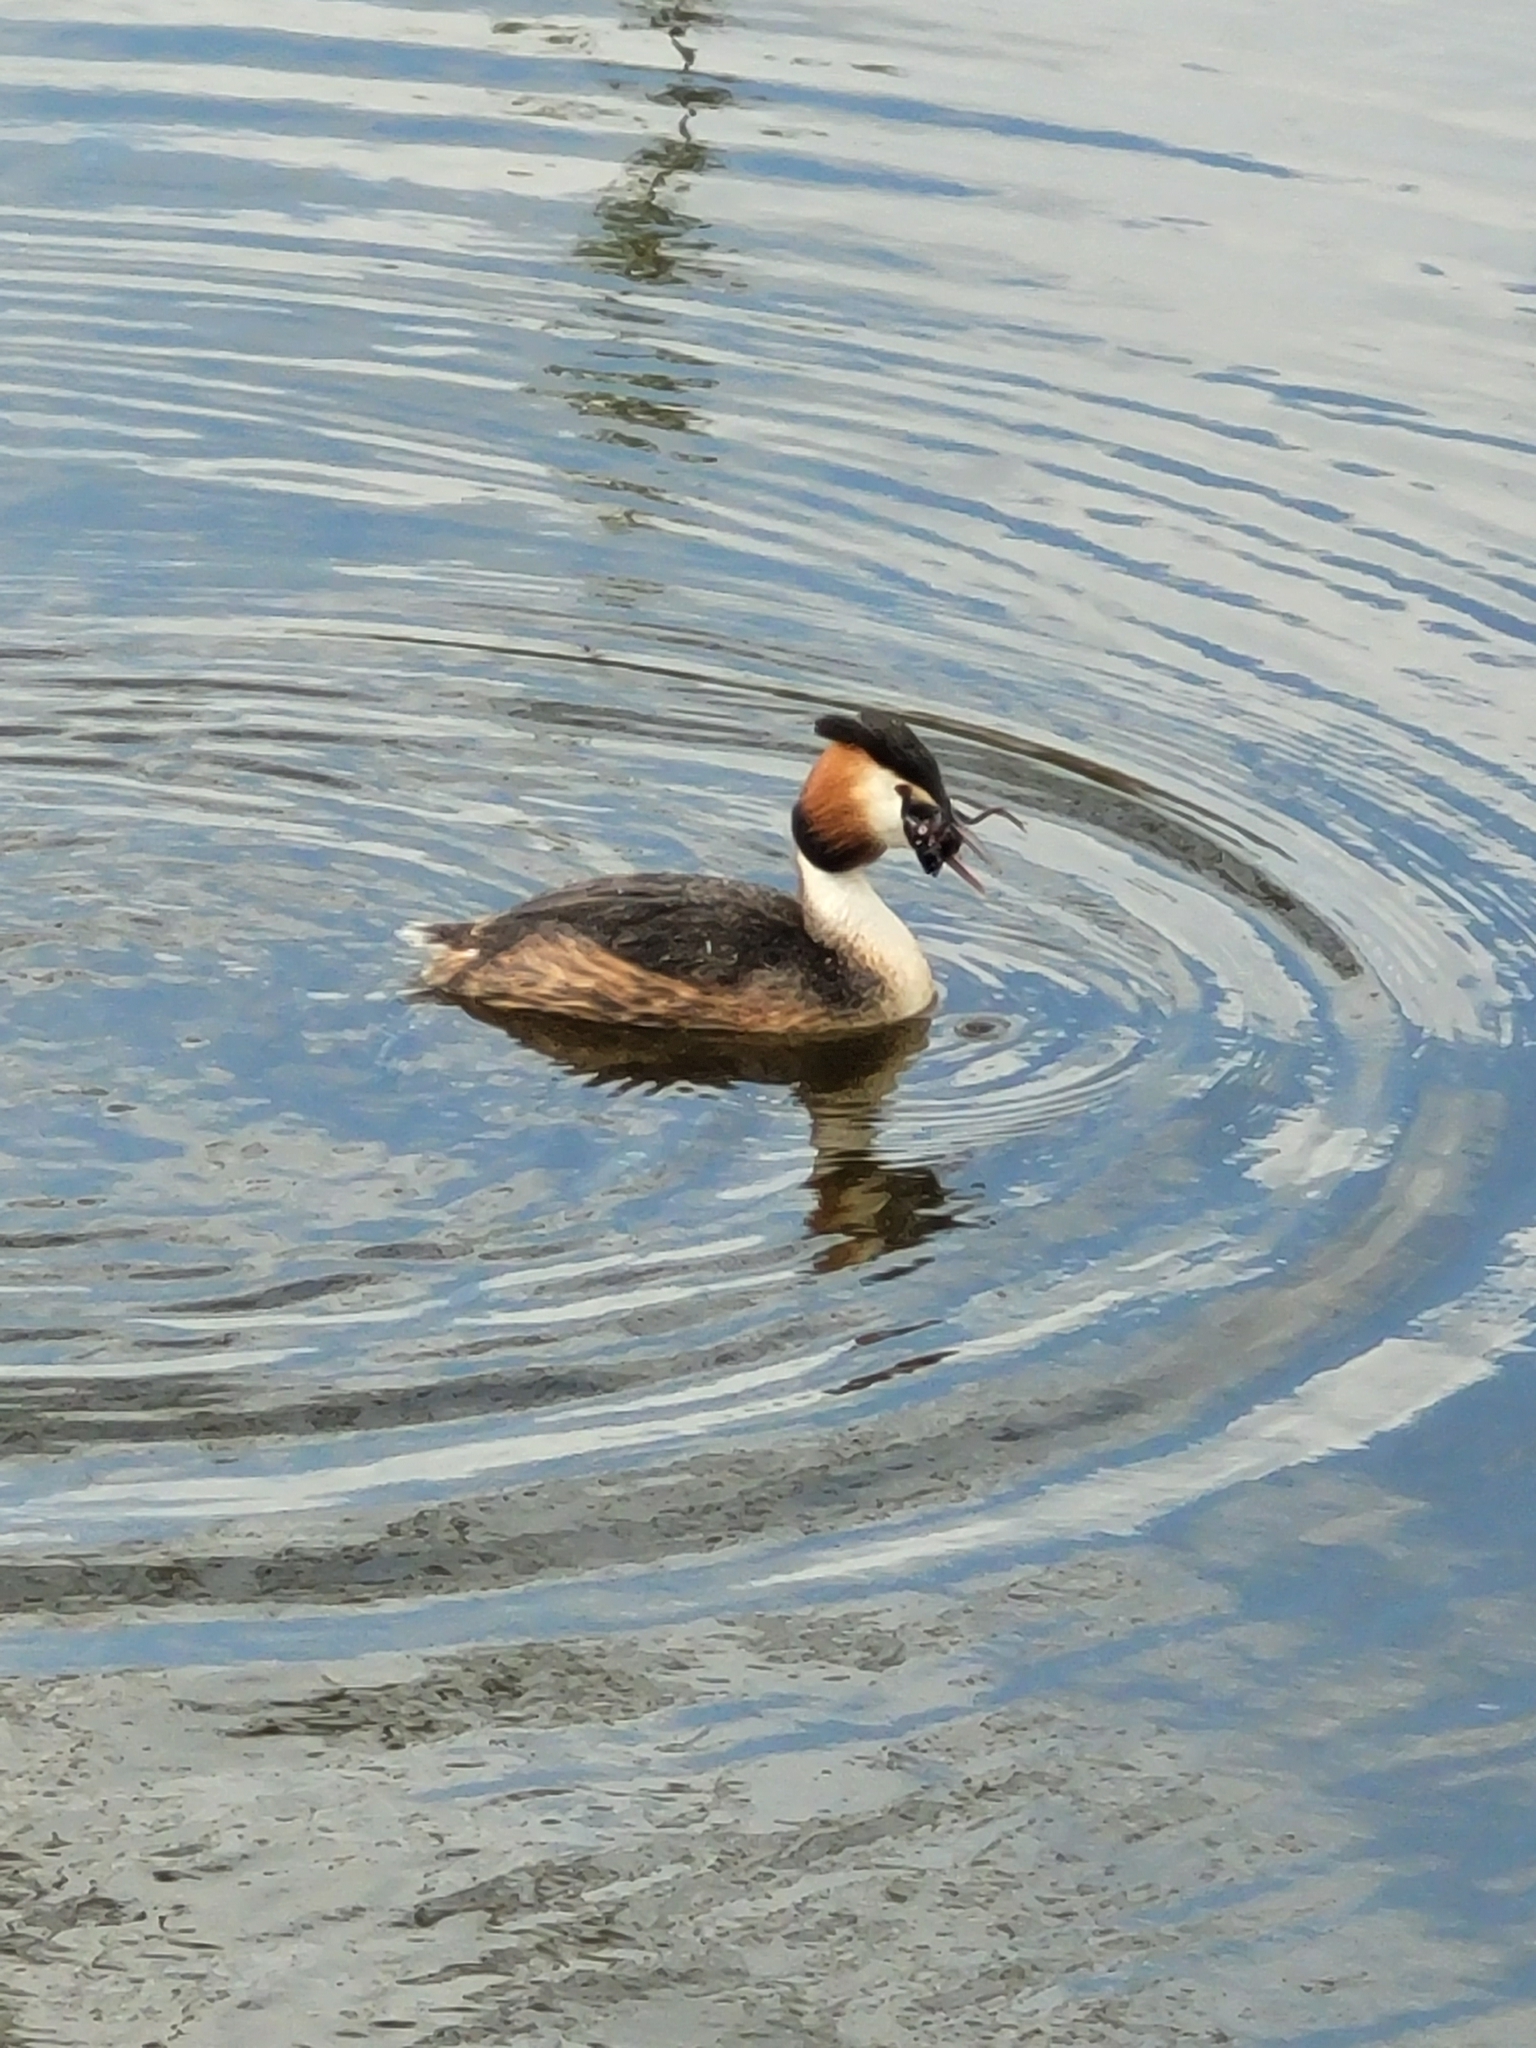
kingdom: Animalia
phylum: Chordata
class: Aves
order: Podicipediformes
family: Podicipedidae
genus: Podiceps
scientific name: Podiceps cristatus
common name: Great crested grebe
